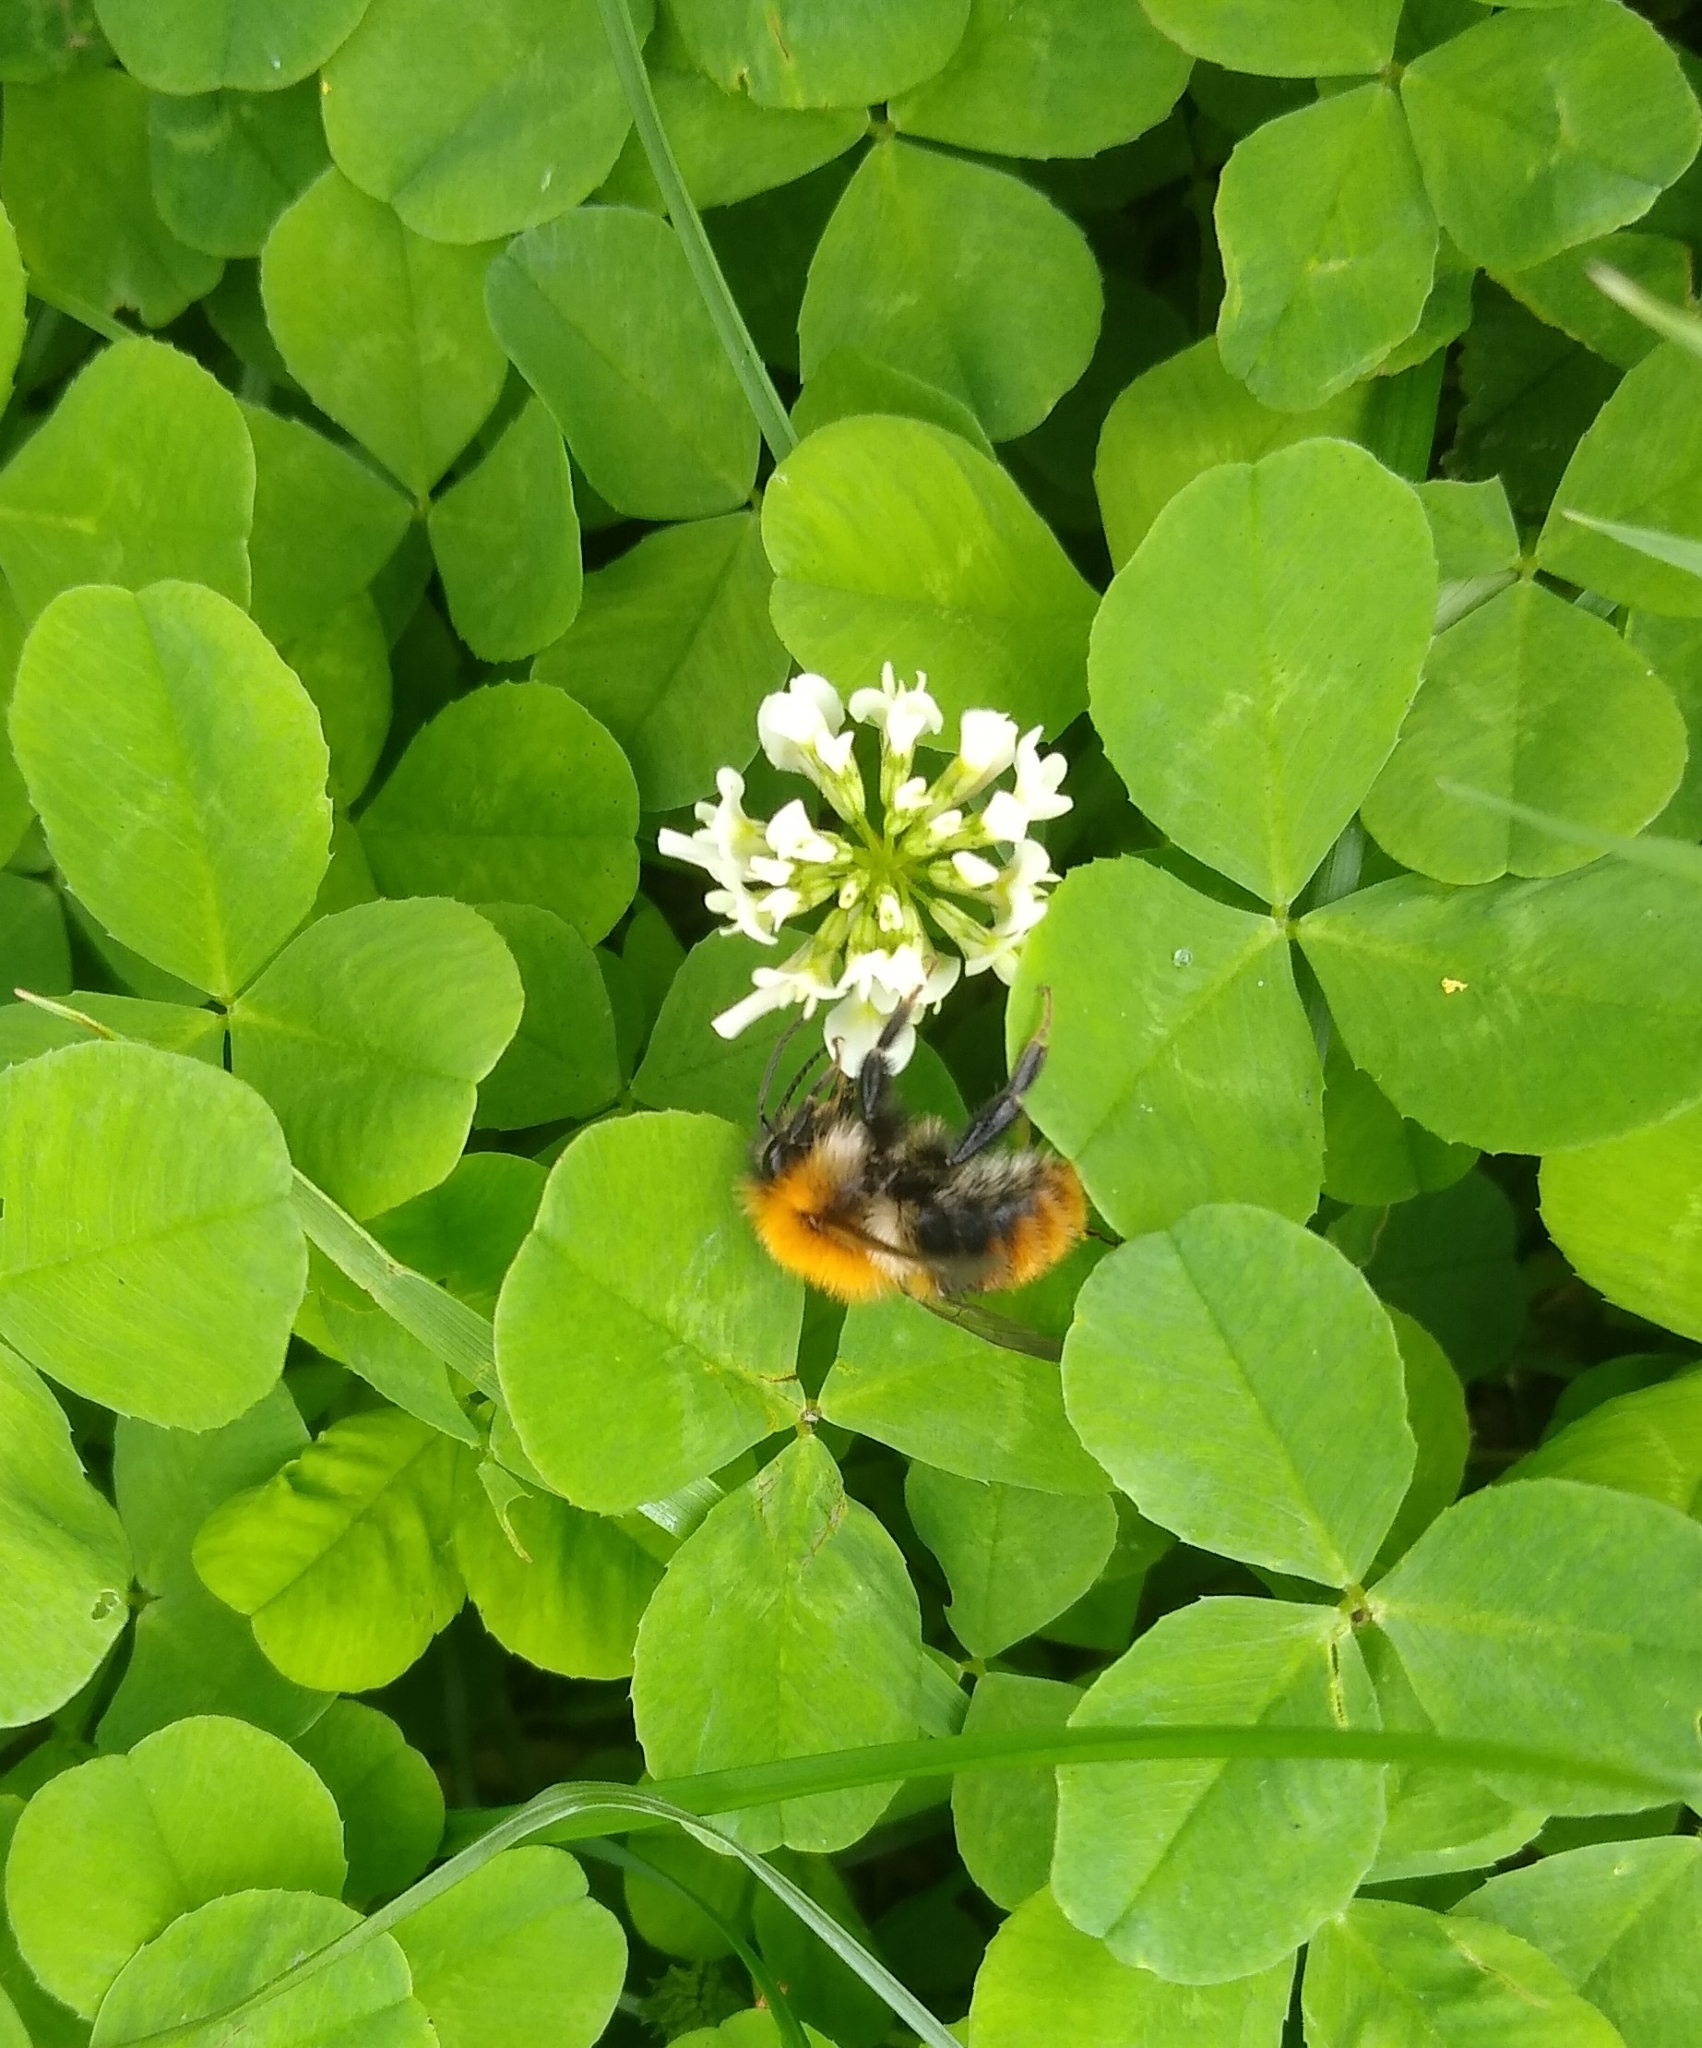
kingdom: Animalia
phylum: Arthropoda
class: Insecta
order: Hymenoptera
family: Apidae
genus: Bombus
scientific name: Bombus pascuorum
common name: Common carder bee
